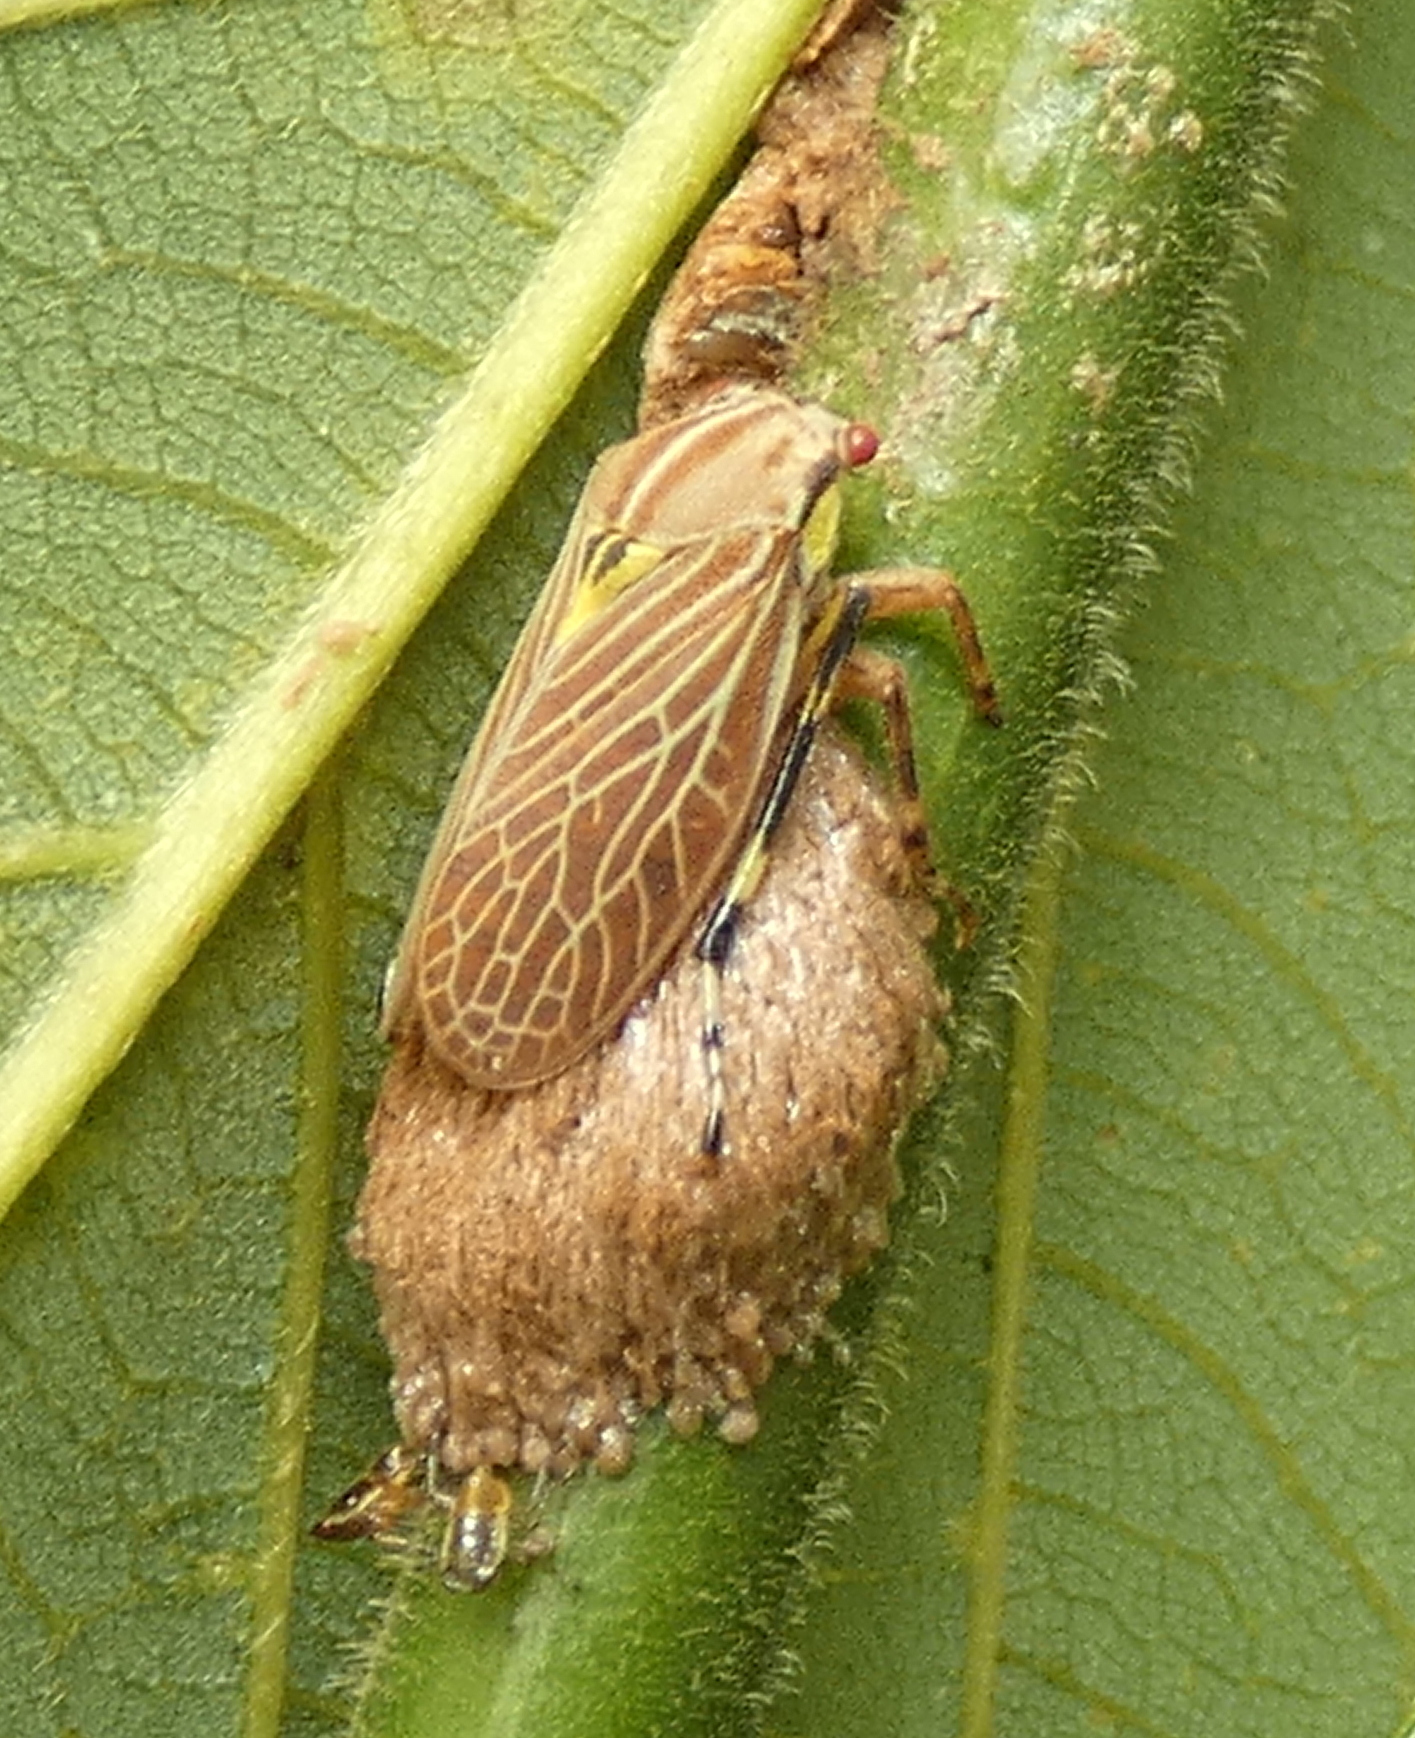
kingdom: Animalia
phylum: Arthropoda
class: Insecta
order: Hemiptera
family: Aetalionidae
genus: Aetalion
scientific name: Aetalion reticulatum
